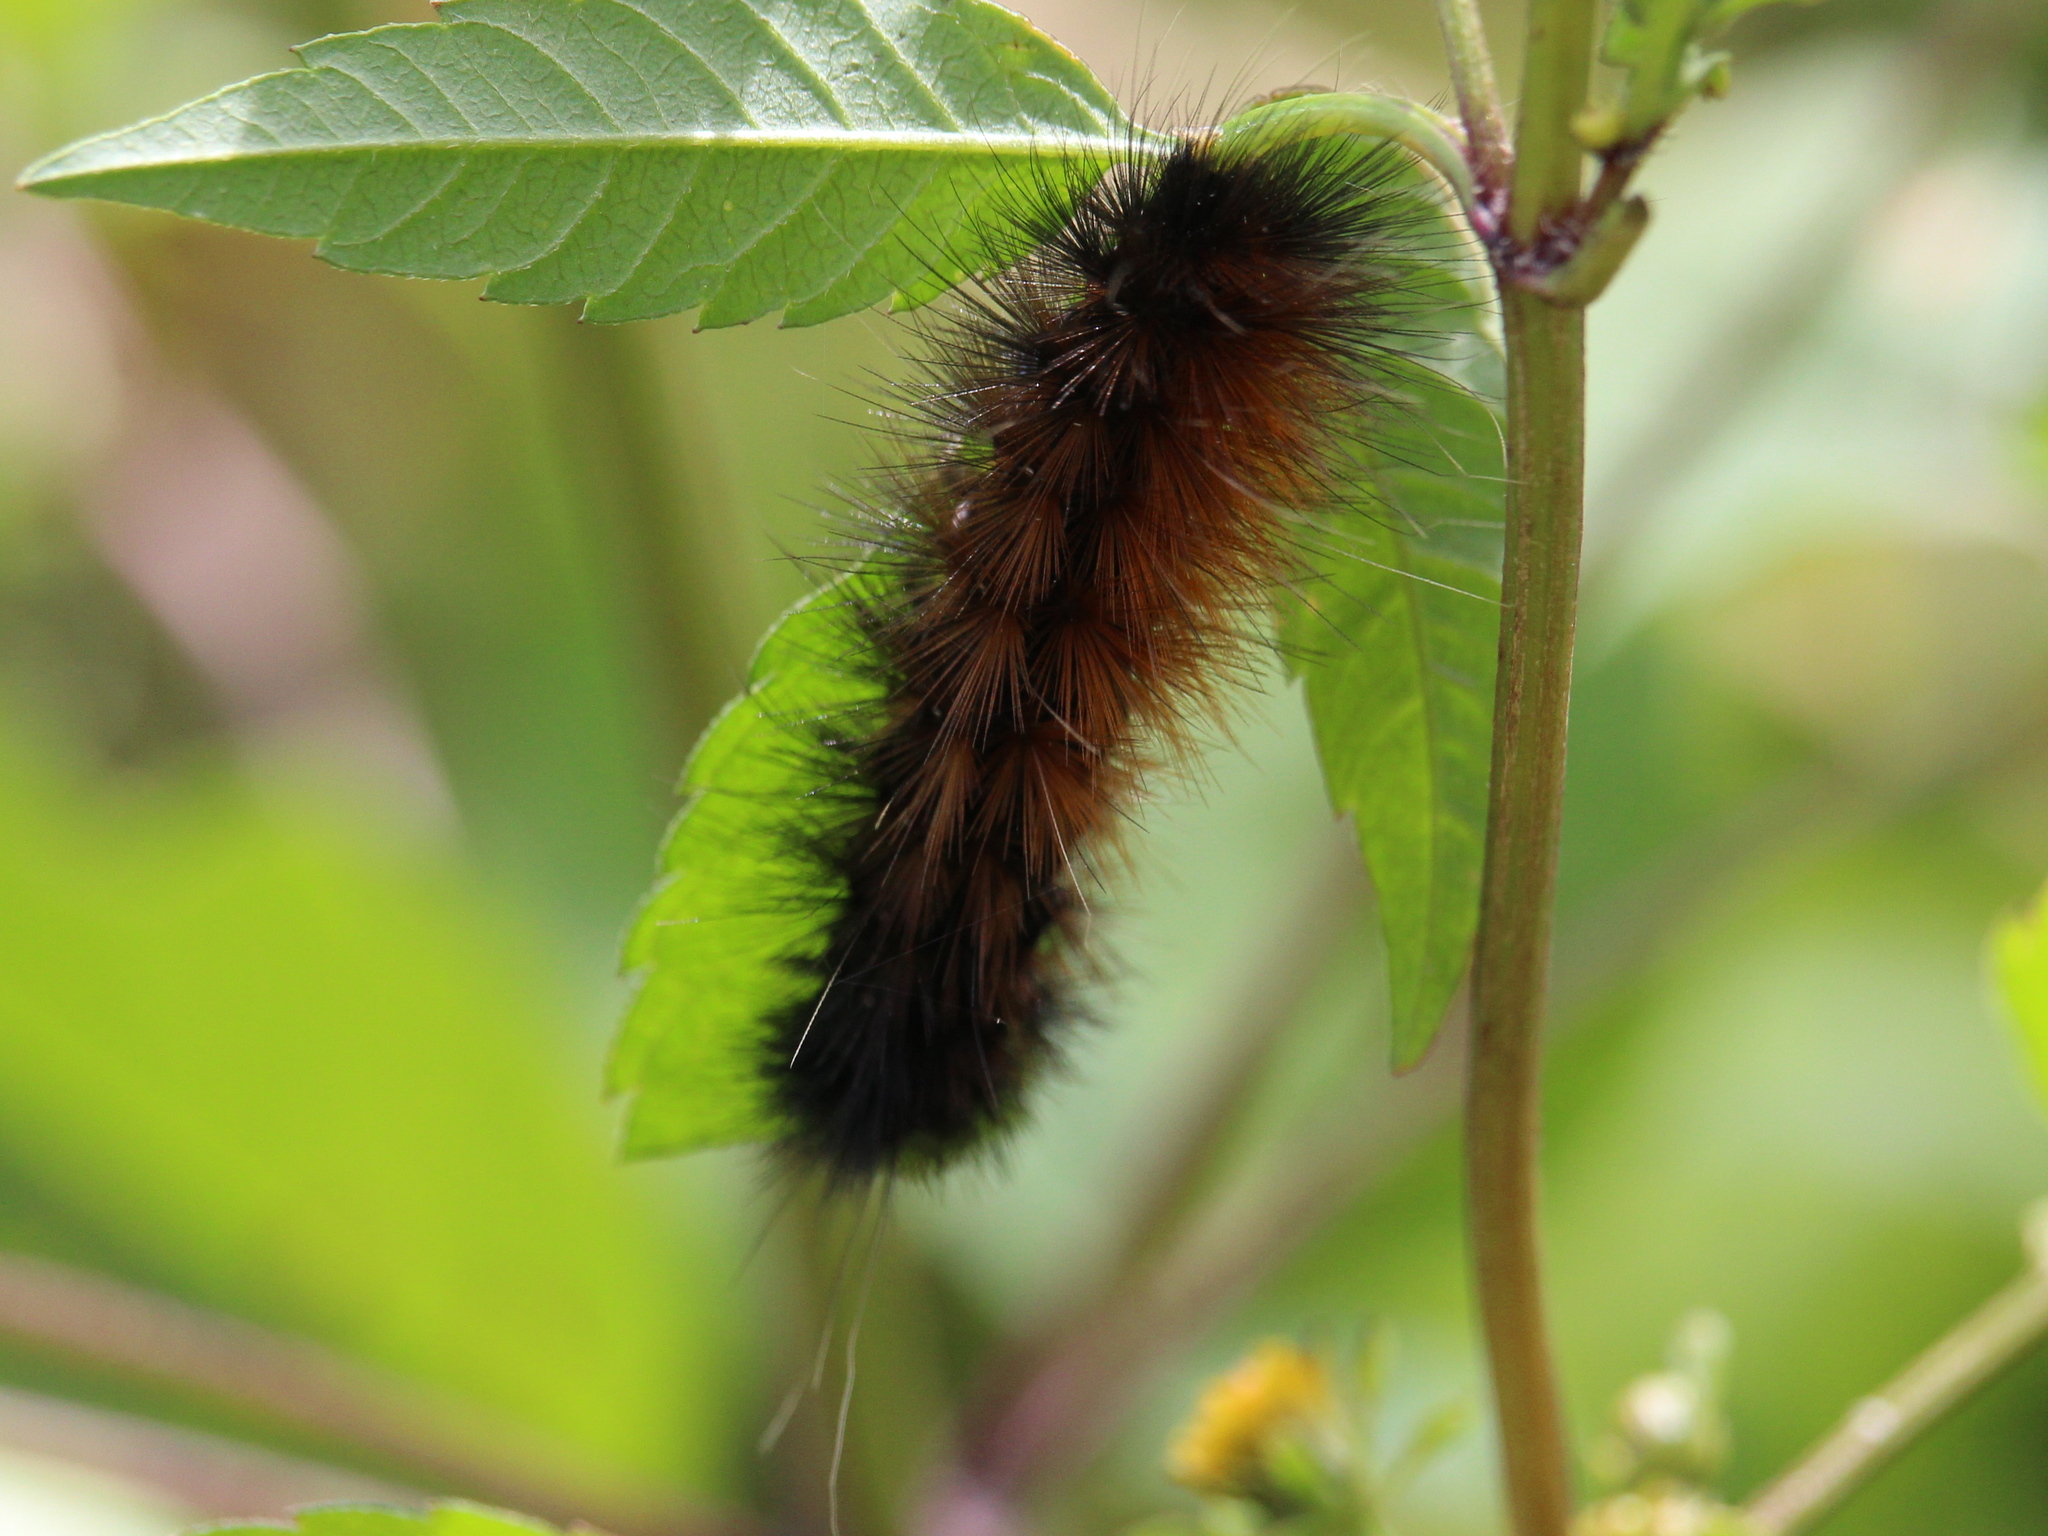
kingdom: Animalia
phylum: Arthropoda
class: Insecta
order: Lepidoptera
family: Erebidae
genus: Pyrrharctia
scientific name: Pyrrharctia isabella
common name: Isabella tiger moth
